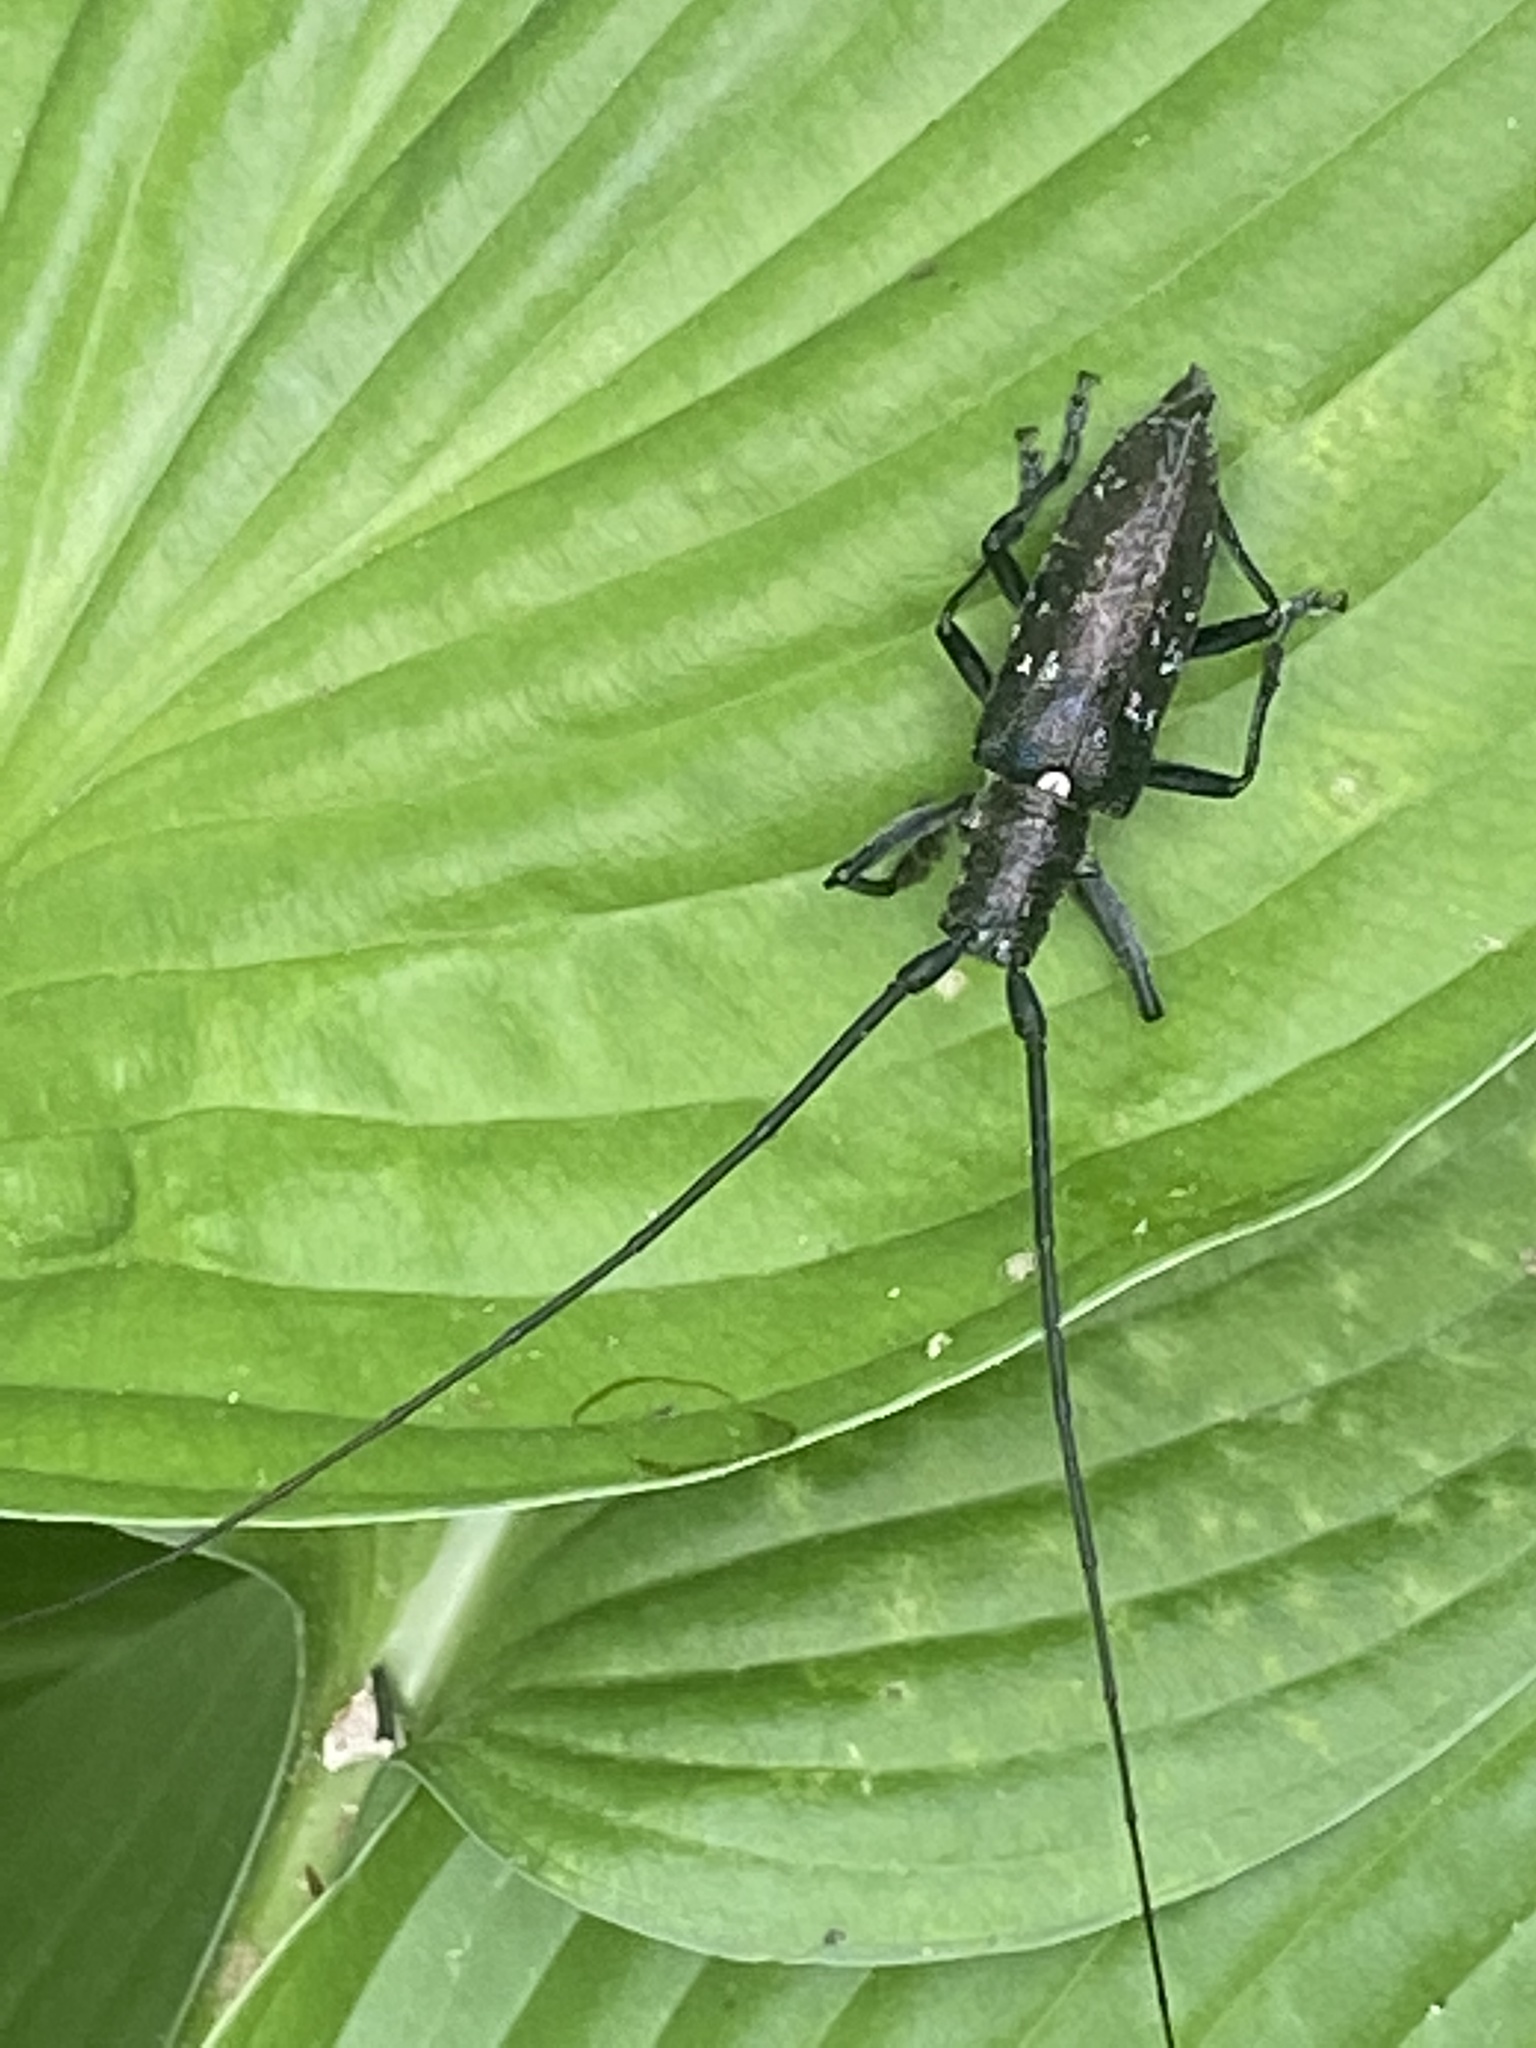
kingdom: Animalia
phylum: Arthropoda
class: Insecta
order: Coleoptera
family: Cerambycidae
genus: Monochamus
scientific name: Monochamus scutellatus
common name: White-spotted sawyer beetle
